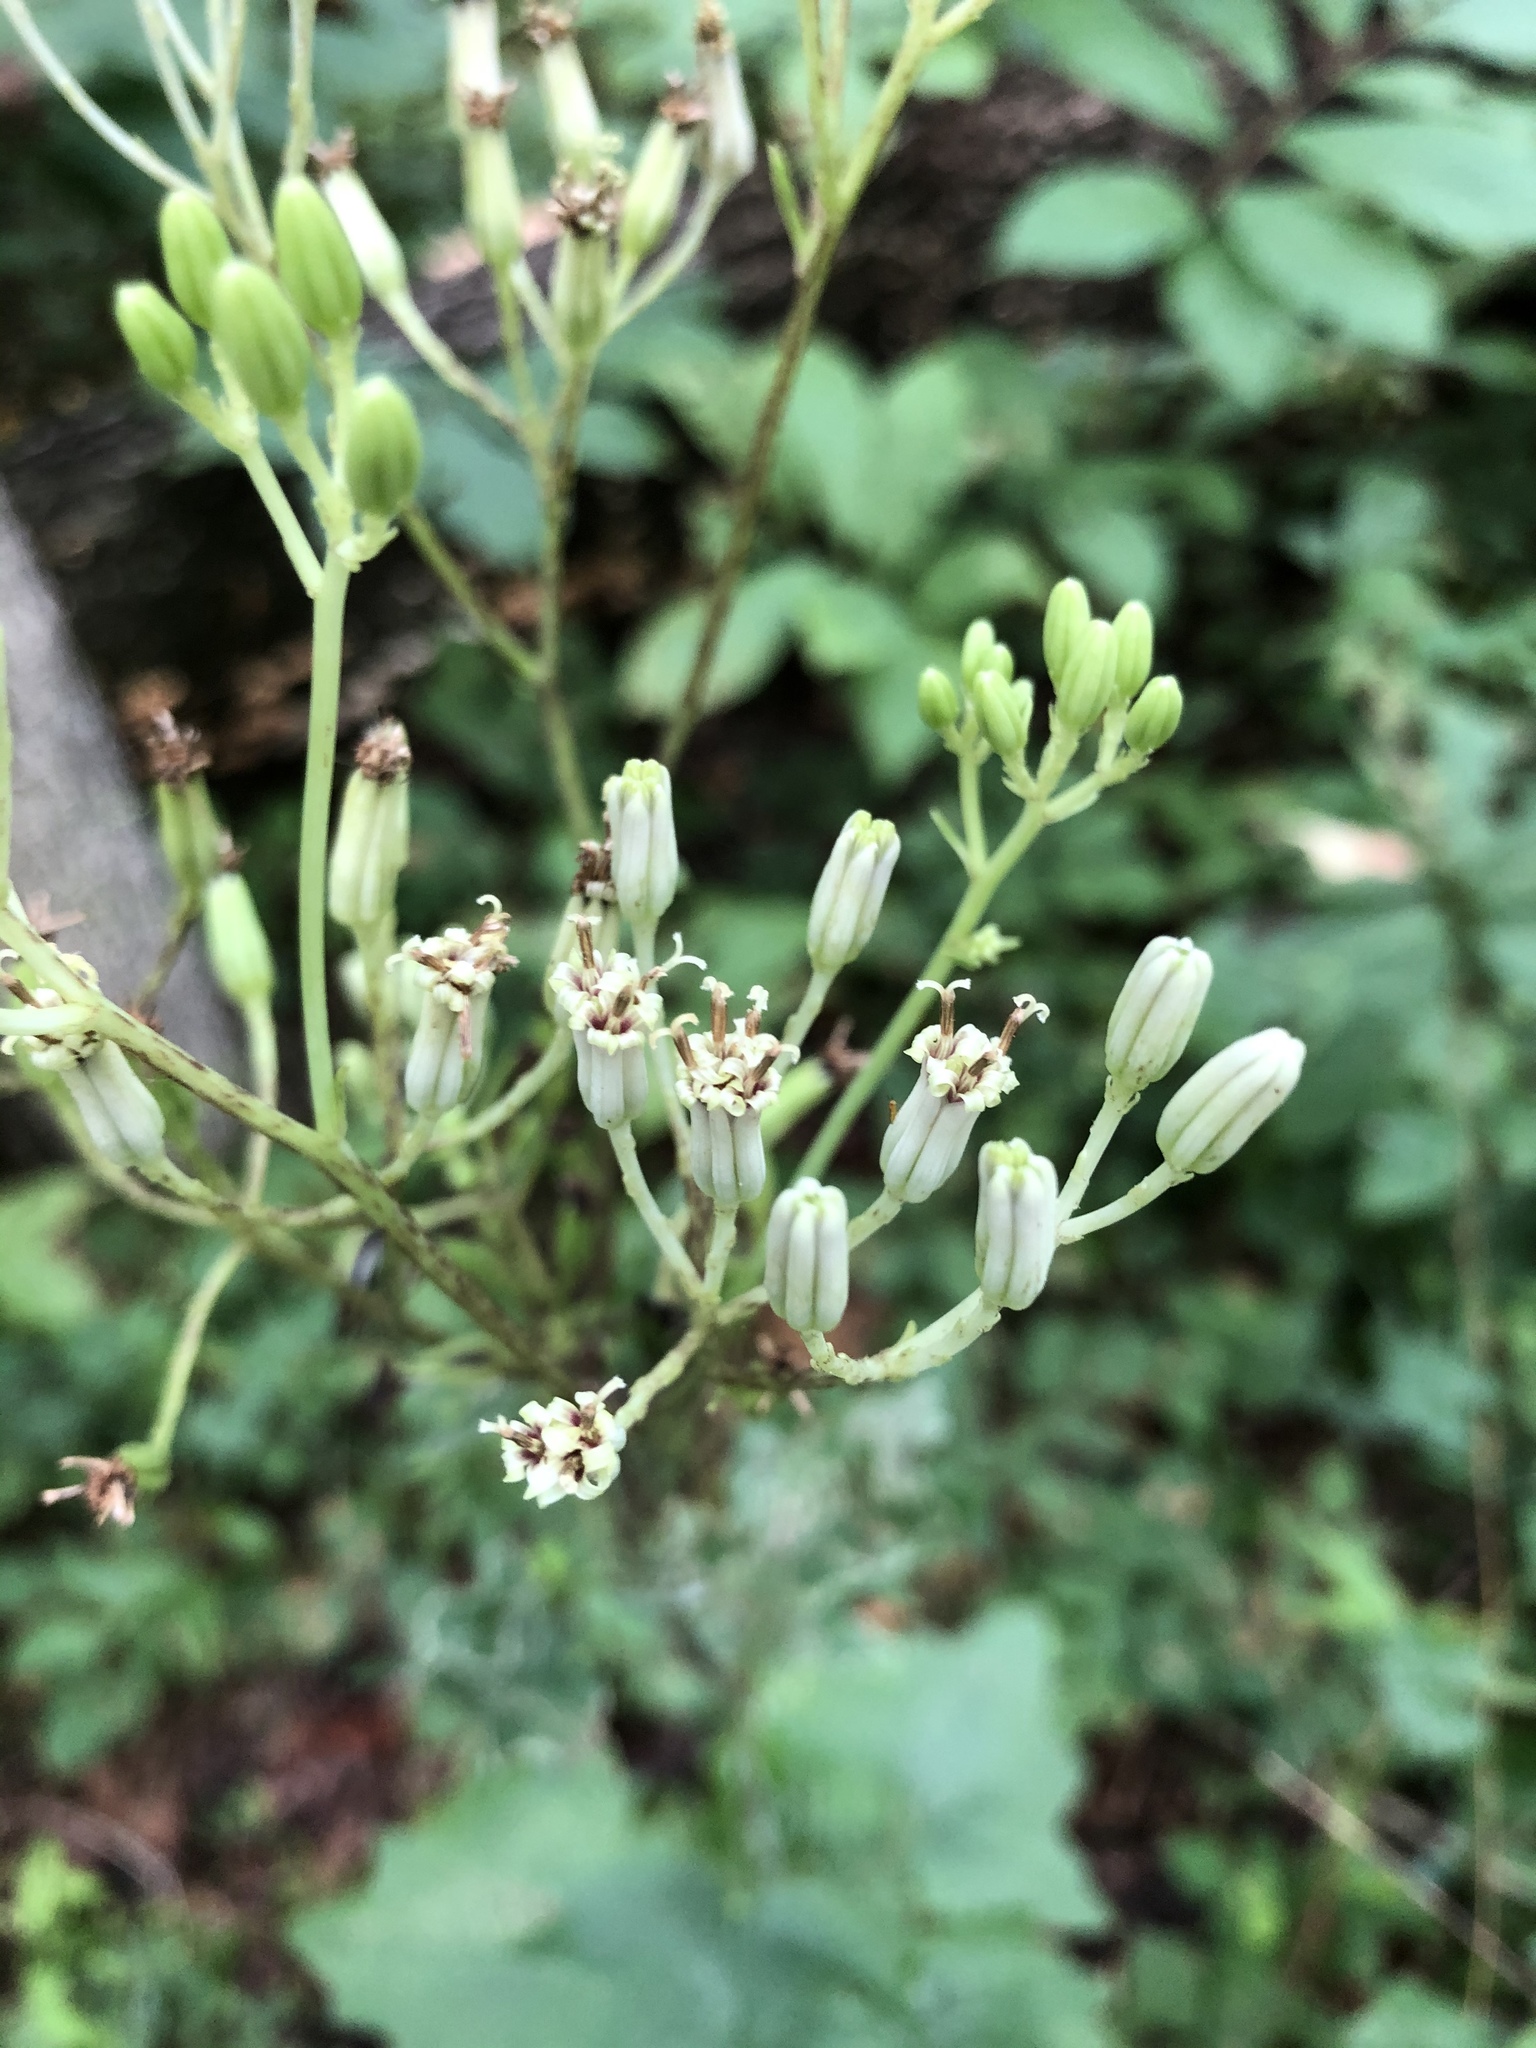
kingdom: Plantae
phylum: Tracheophyta
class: Magnoliopsida
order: Asterales
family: Asteraceae
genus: Arnoglossum
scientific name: Arnoglossum atriplicifolium
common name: Pale indian-plantain
